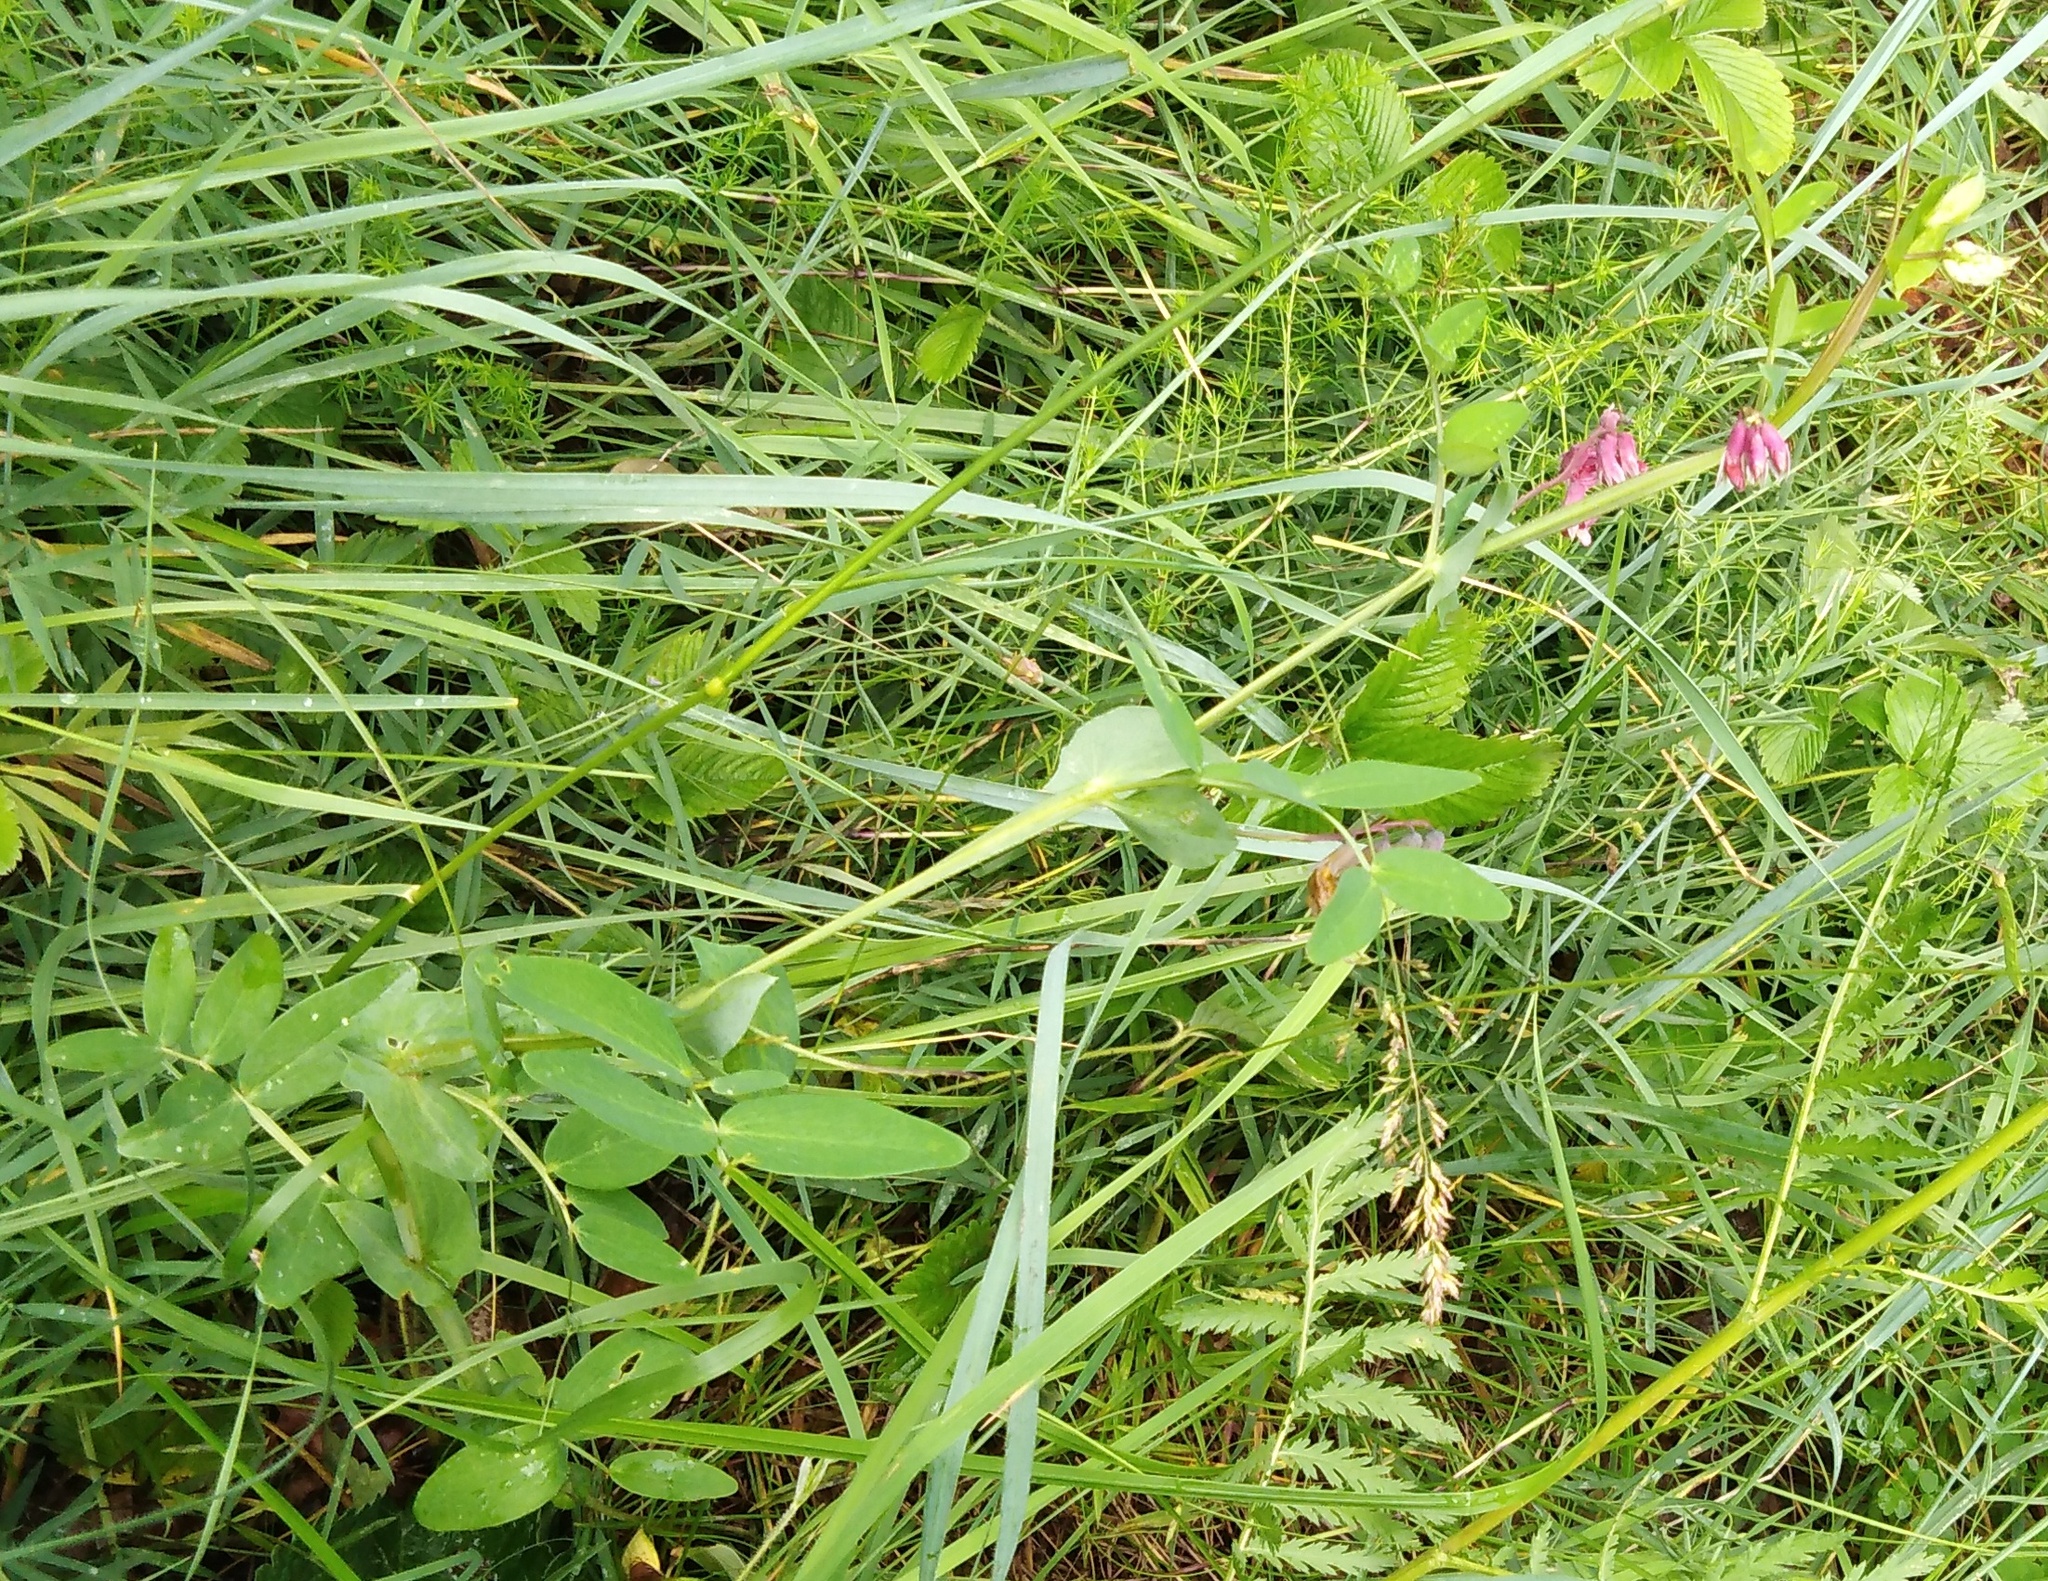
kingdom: Plantae
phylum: Tracheophyta
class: Magnoliopsida
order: Fabales
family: Fabaceae
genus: Lathyrus
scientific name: Lathyrus pisiformis
